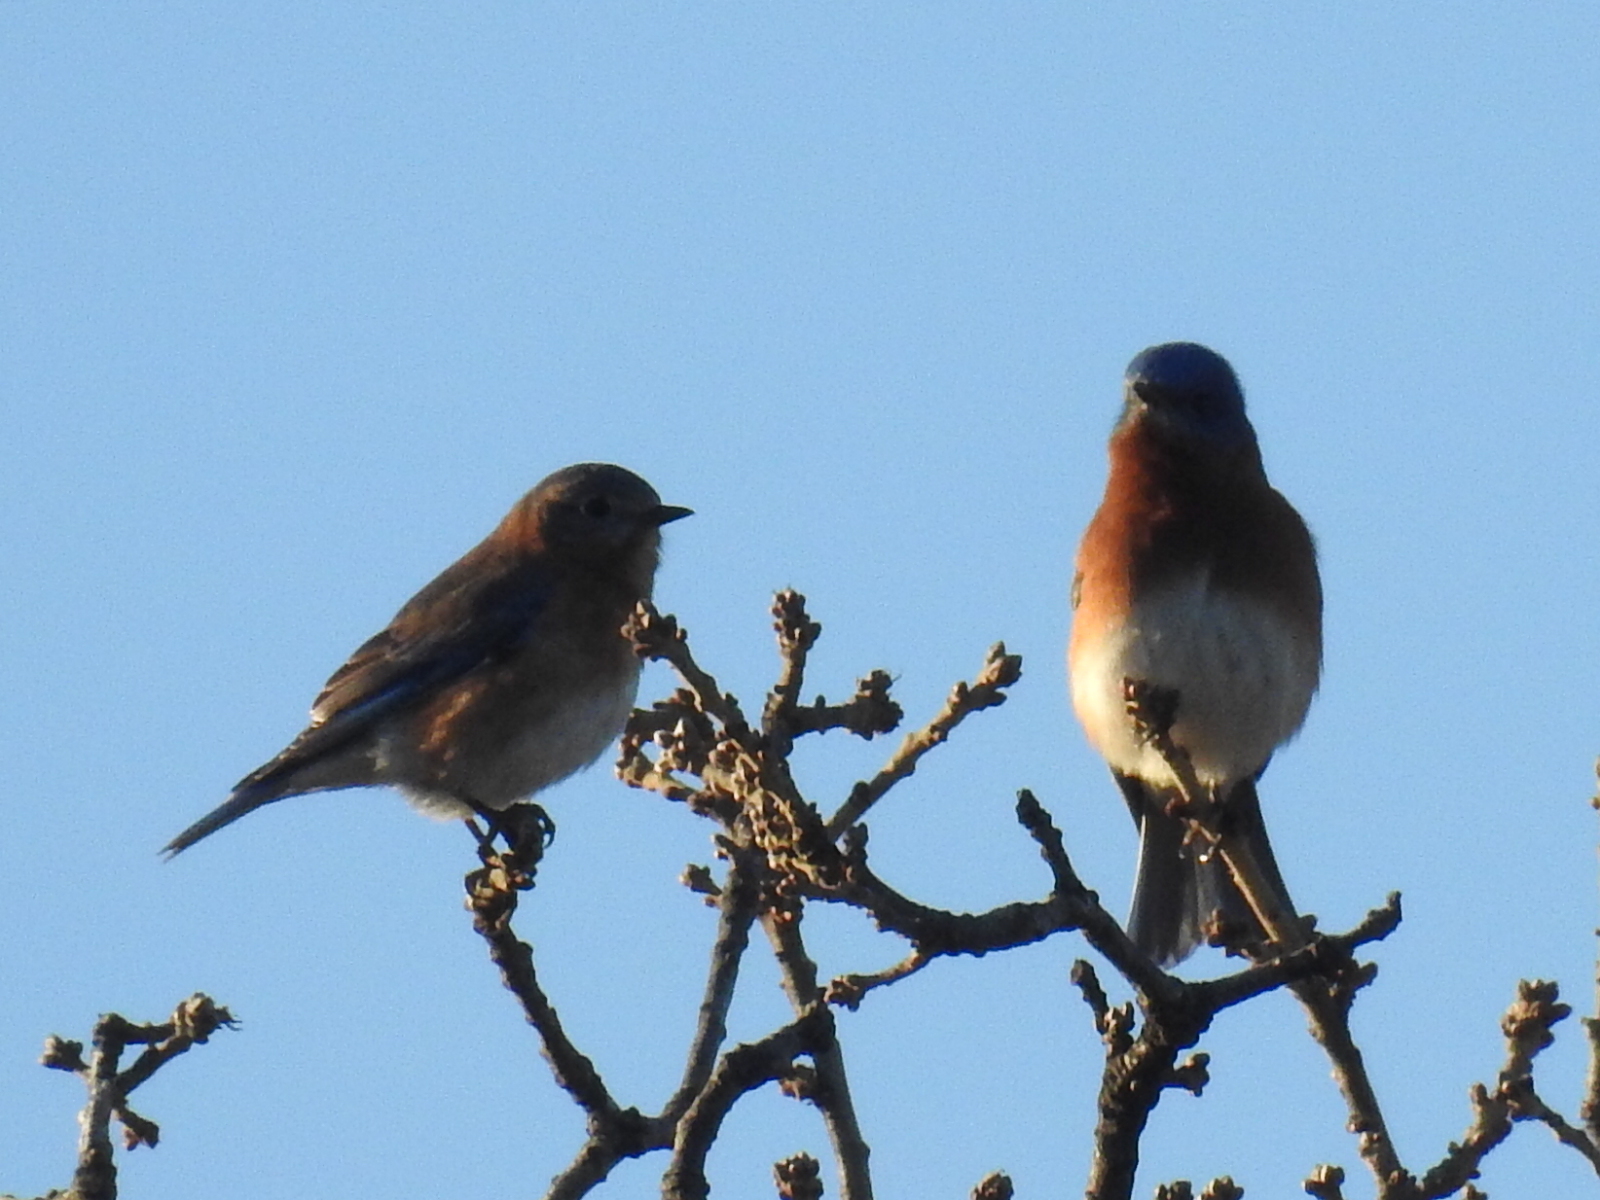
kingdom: Animalia
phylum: Chordata
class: Aves
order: Passeriformes
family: Turdidae
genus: Sialia
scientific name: Sialia sialis
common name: Eastern bluebird
